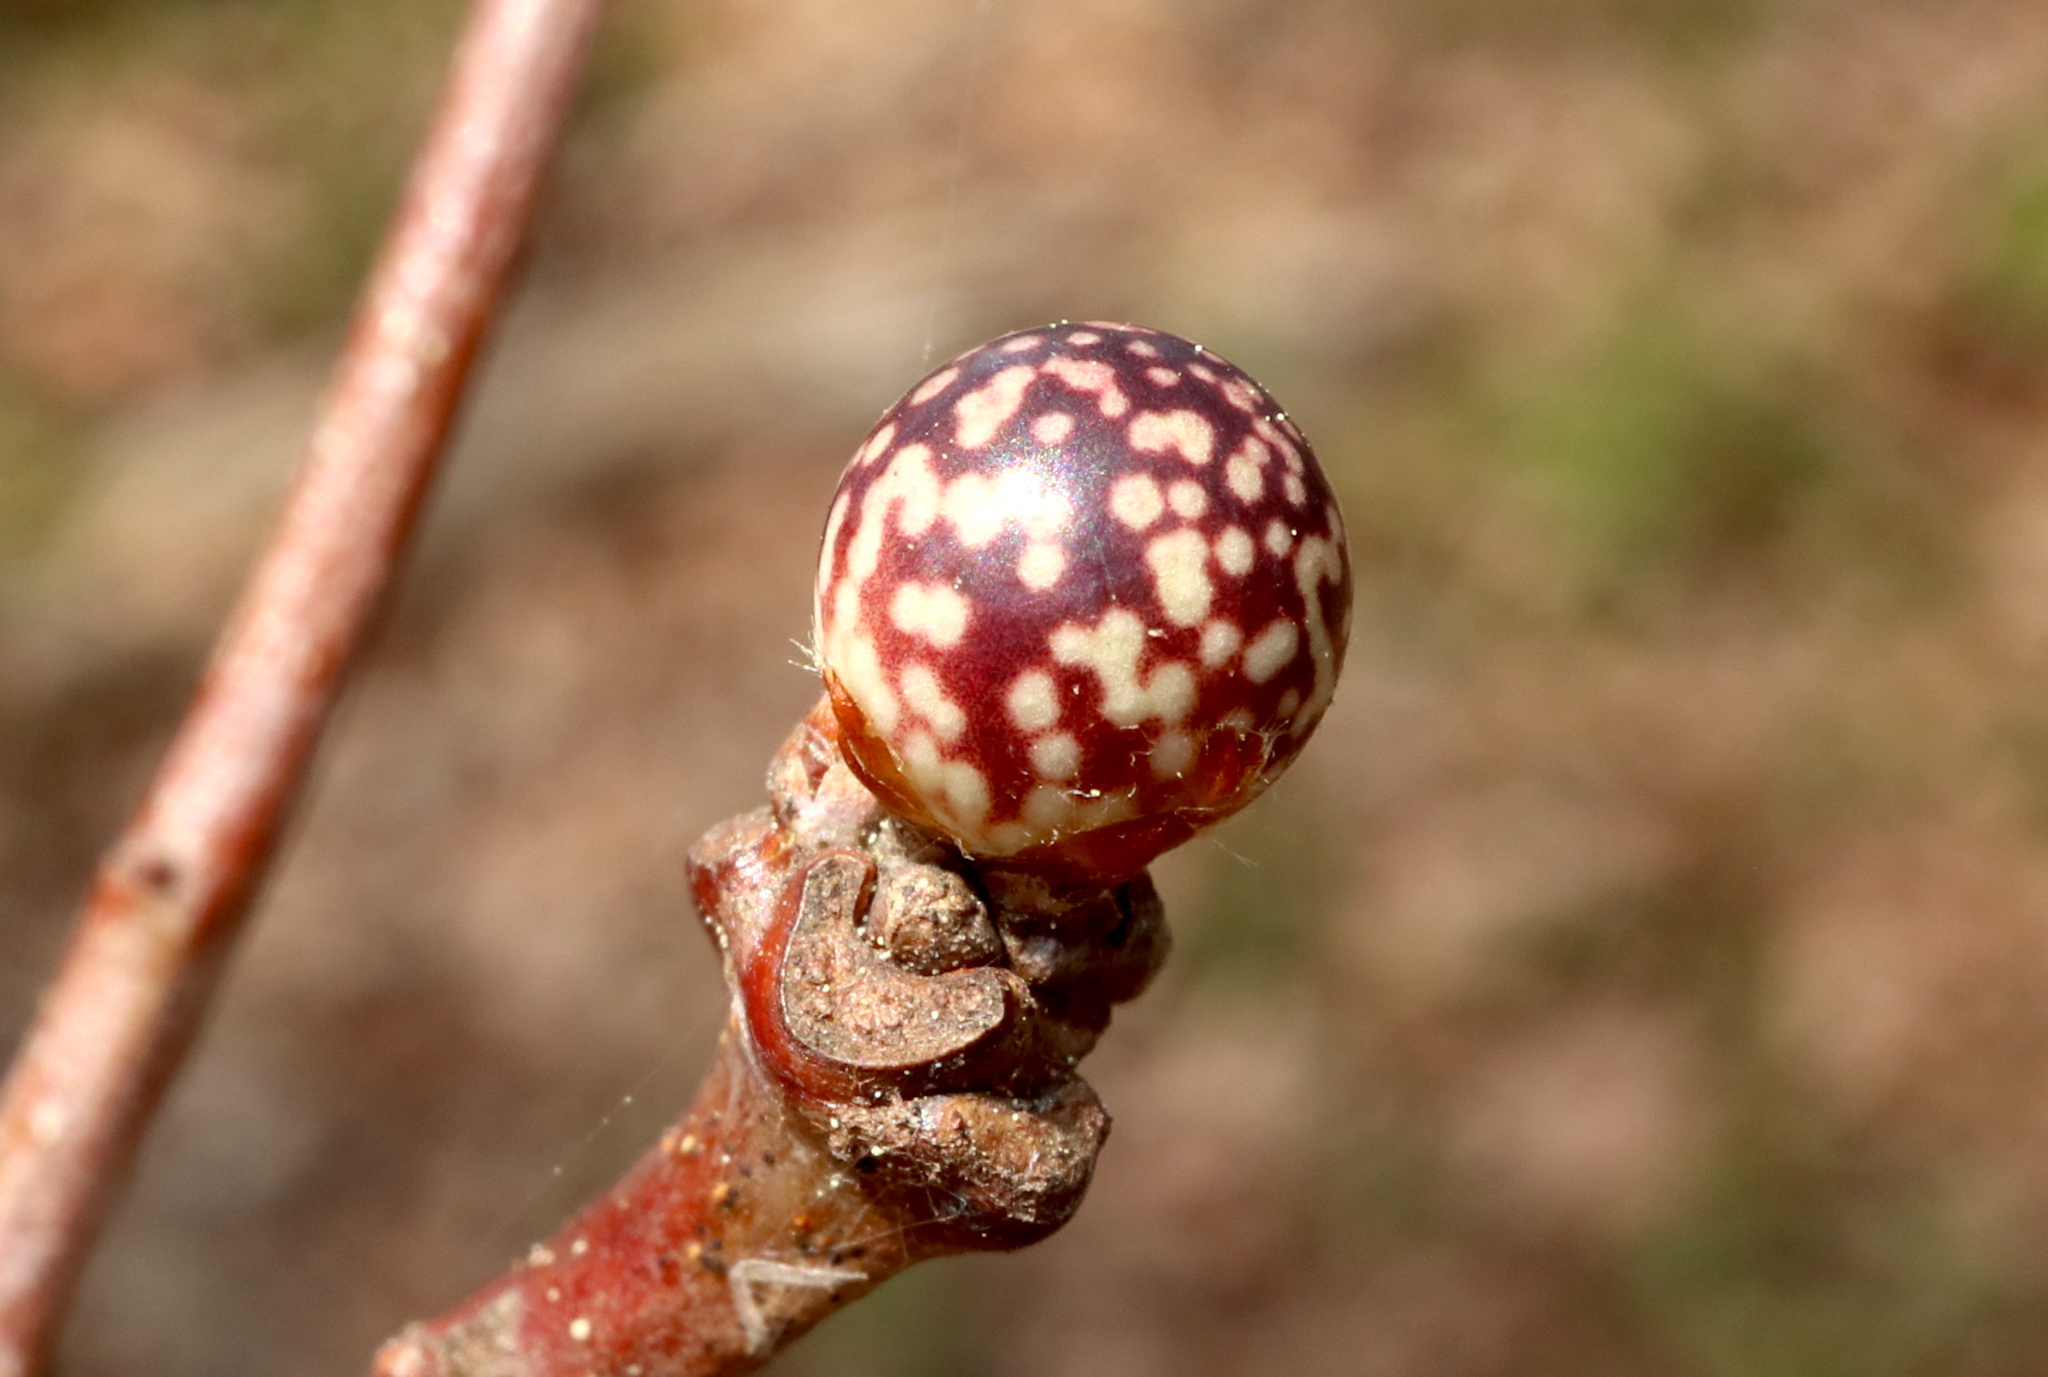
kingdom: Animalia
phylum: Arthropoda
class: Insecta
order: Hymenoptera
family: Cynipidae
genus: Andricus
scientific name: Andricus
